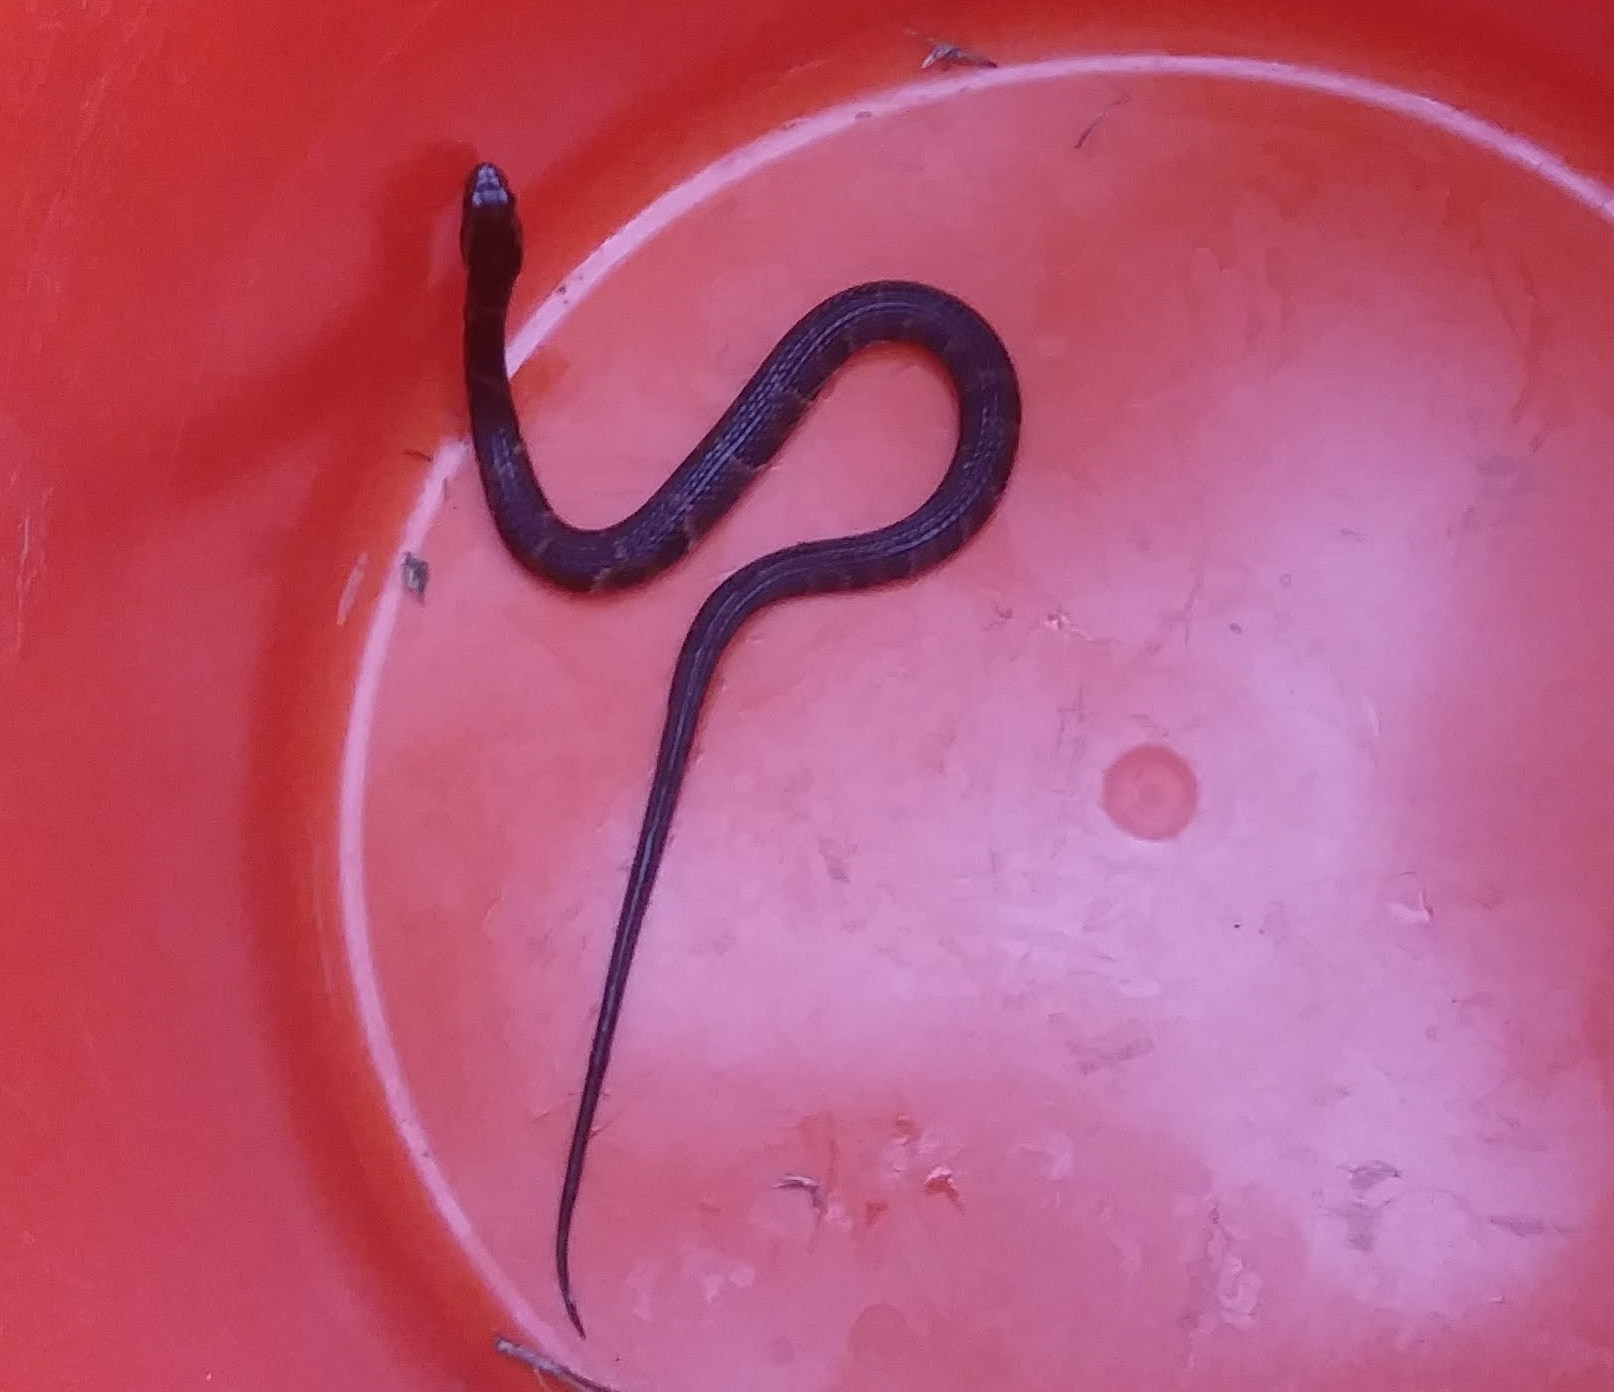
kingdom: Animalia
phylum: Chordata
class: Squamata
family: Colubridae
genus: Nerodia
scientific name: Nerodia fasciata
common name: Southern water snake
